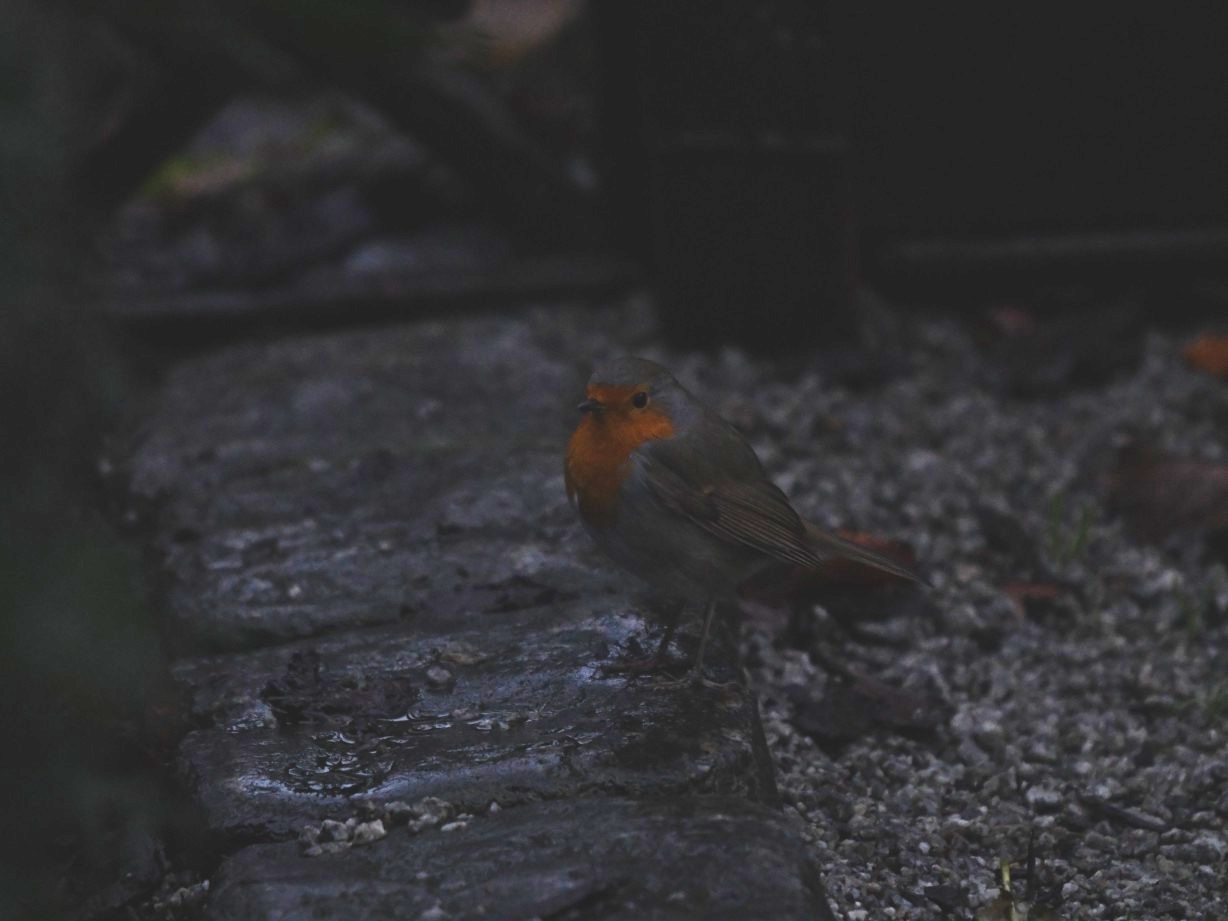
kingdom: Animalia
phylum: Chordata
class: Aves
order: Passeriformes
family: Muscicapidae
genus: Erithacus
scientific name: Erithacus rubecula
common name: European robin
